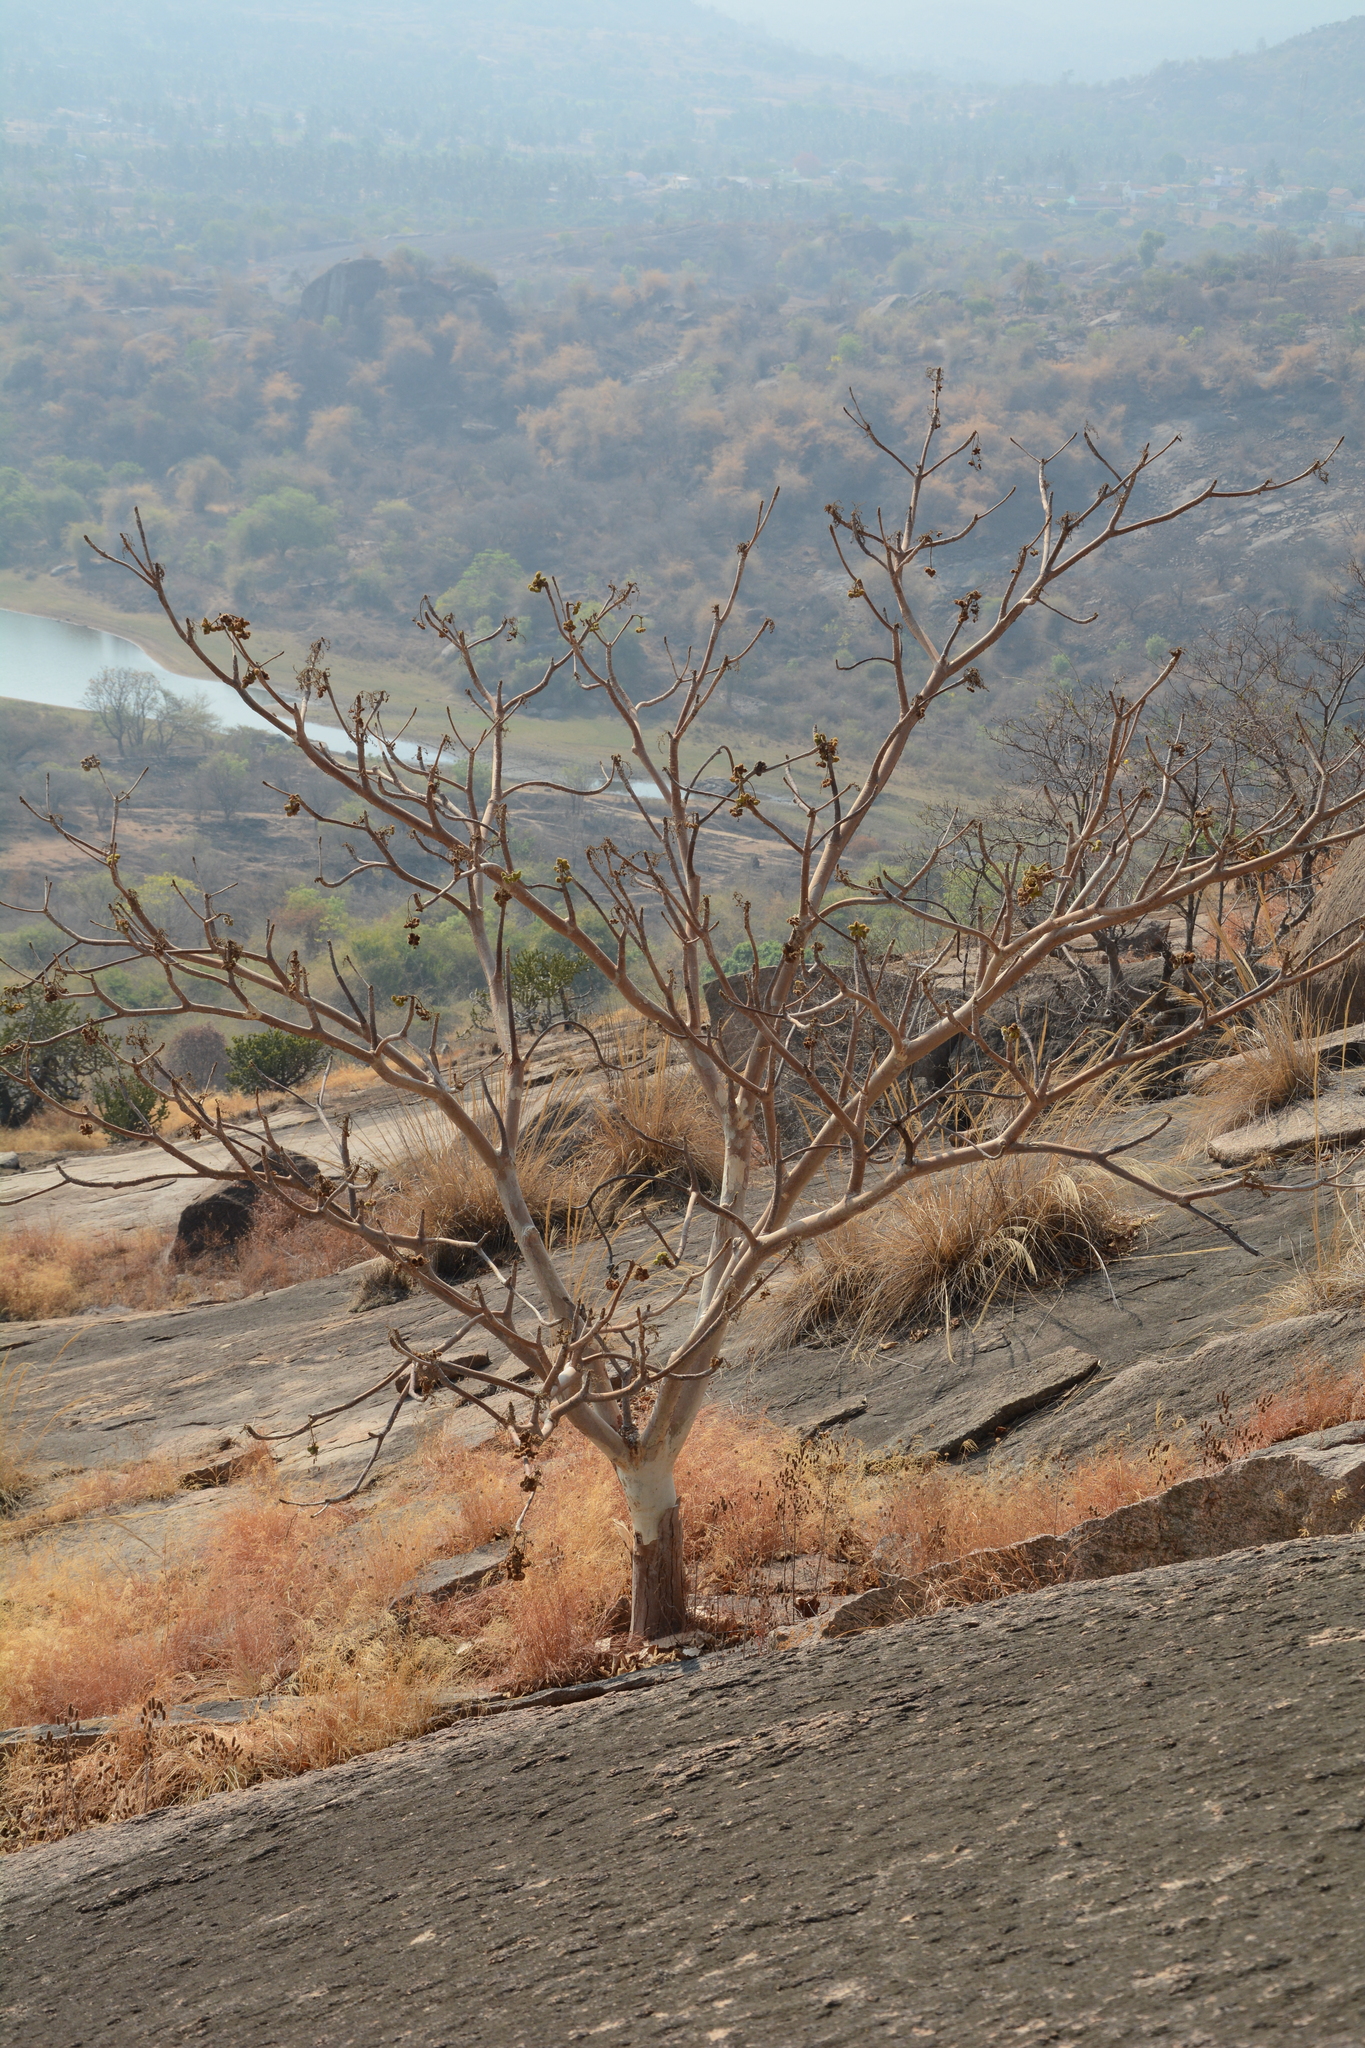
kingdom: Plantae
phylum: Tracheophyta
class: Magnoliopsida
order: Malvales
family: Malvaceae
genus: Sterculia
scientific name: Sterculia urens
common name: Indian-tragacanth
